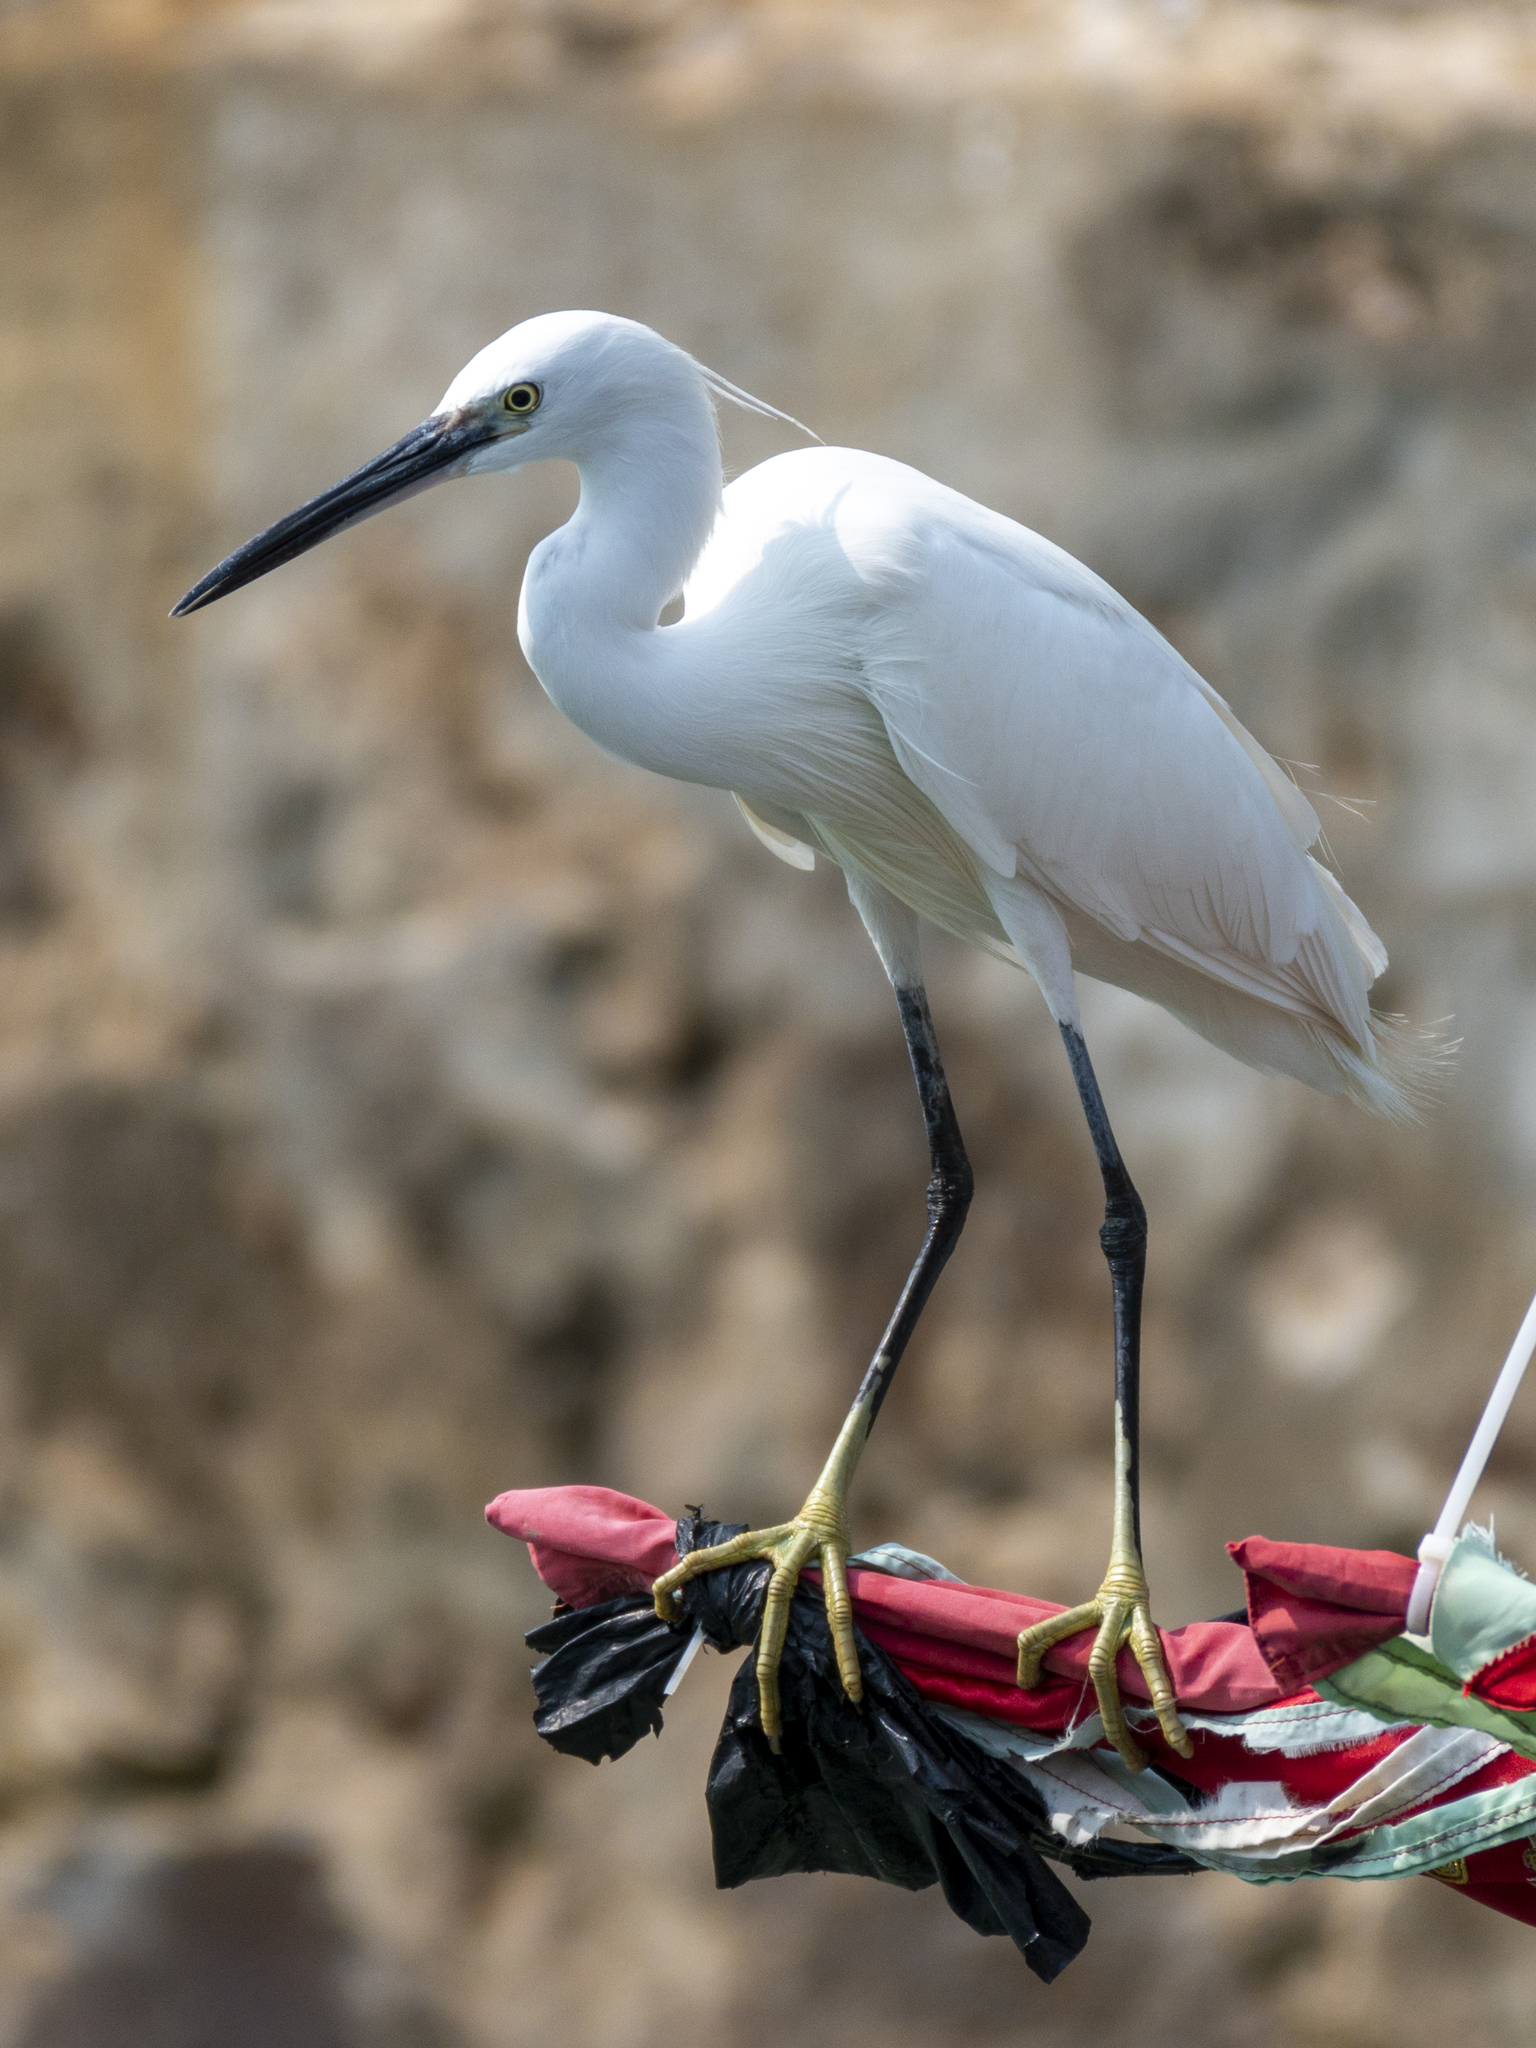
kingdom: Animalia
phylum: Chordata
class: Aves
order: Pelecaniformes
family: Ardeidae
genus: Egretta
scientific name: Egretta garzetta
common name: Little egret
